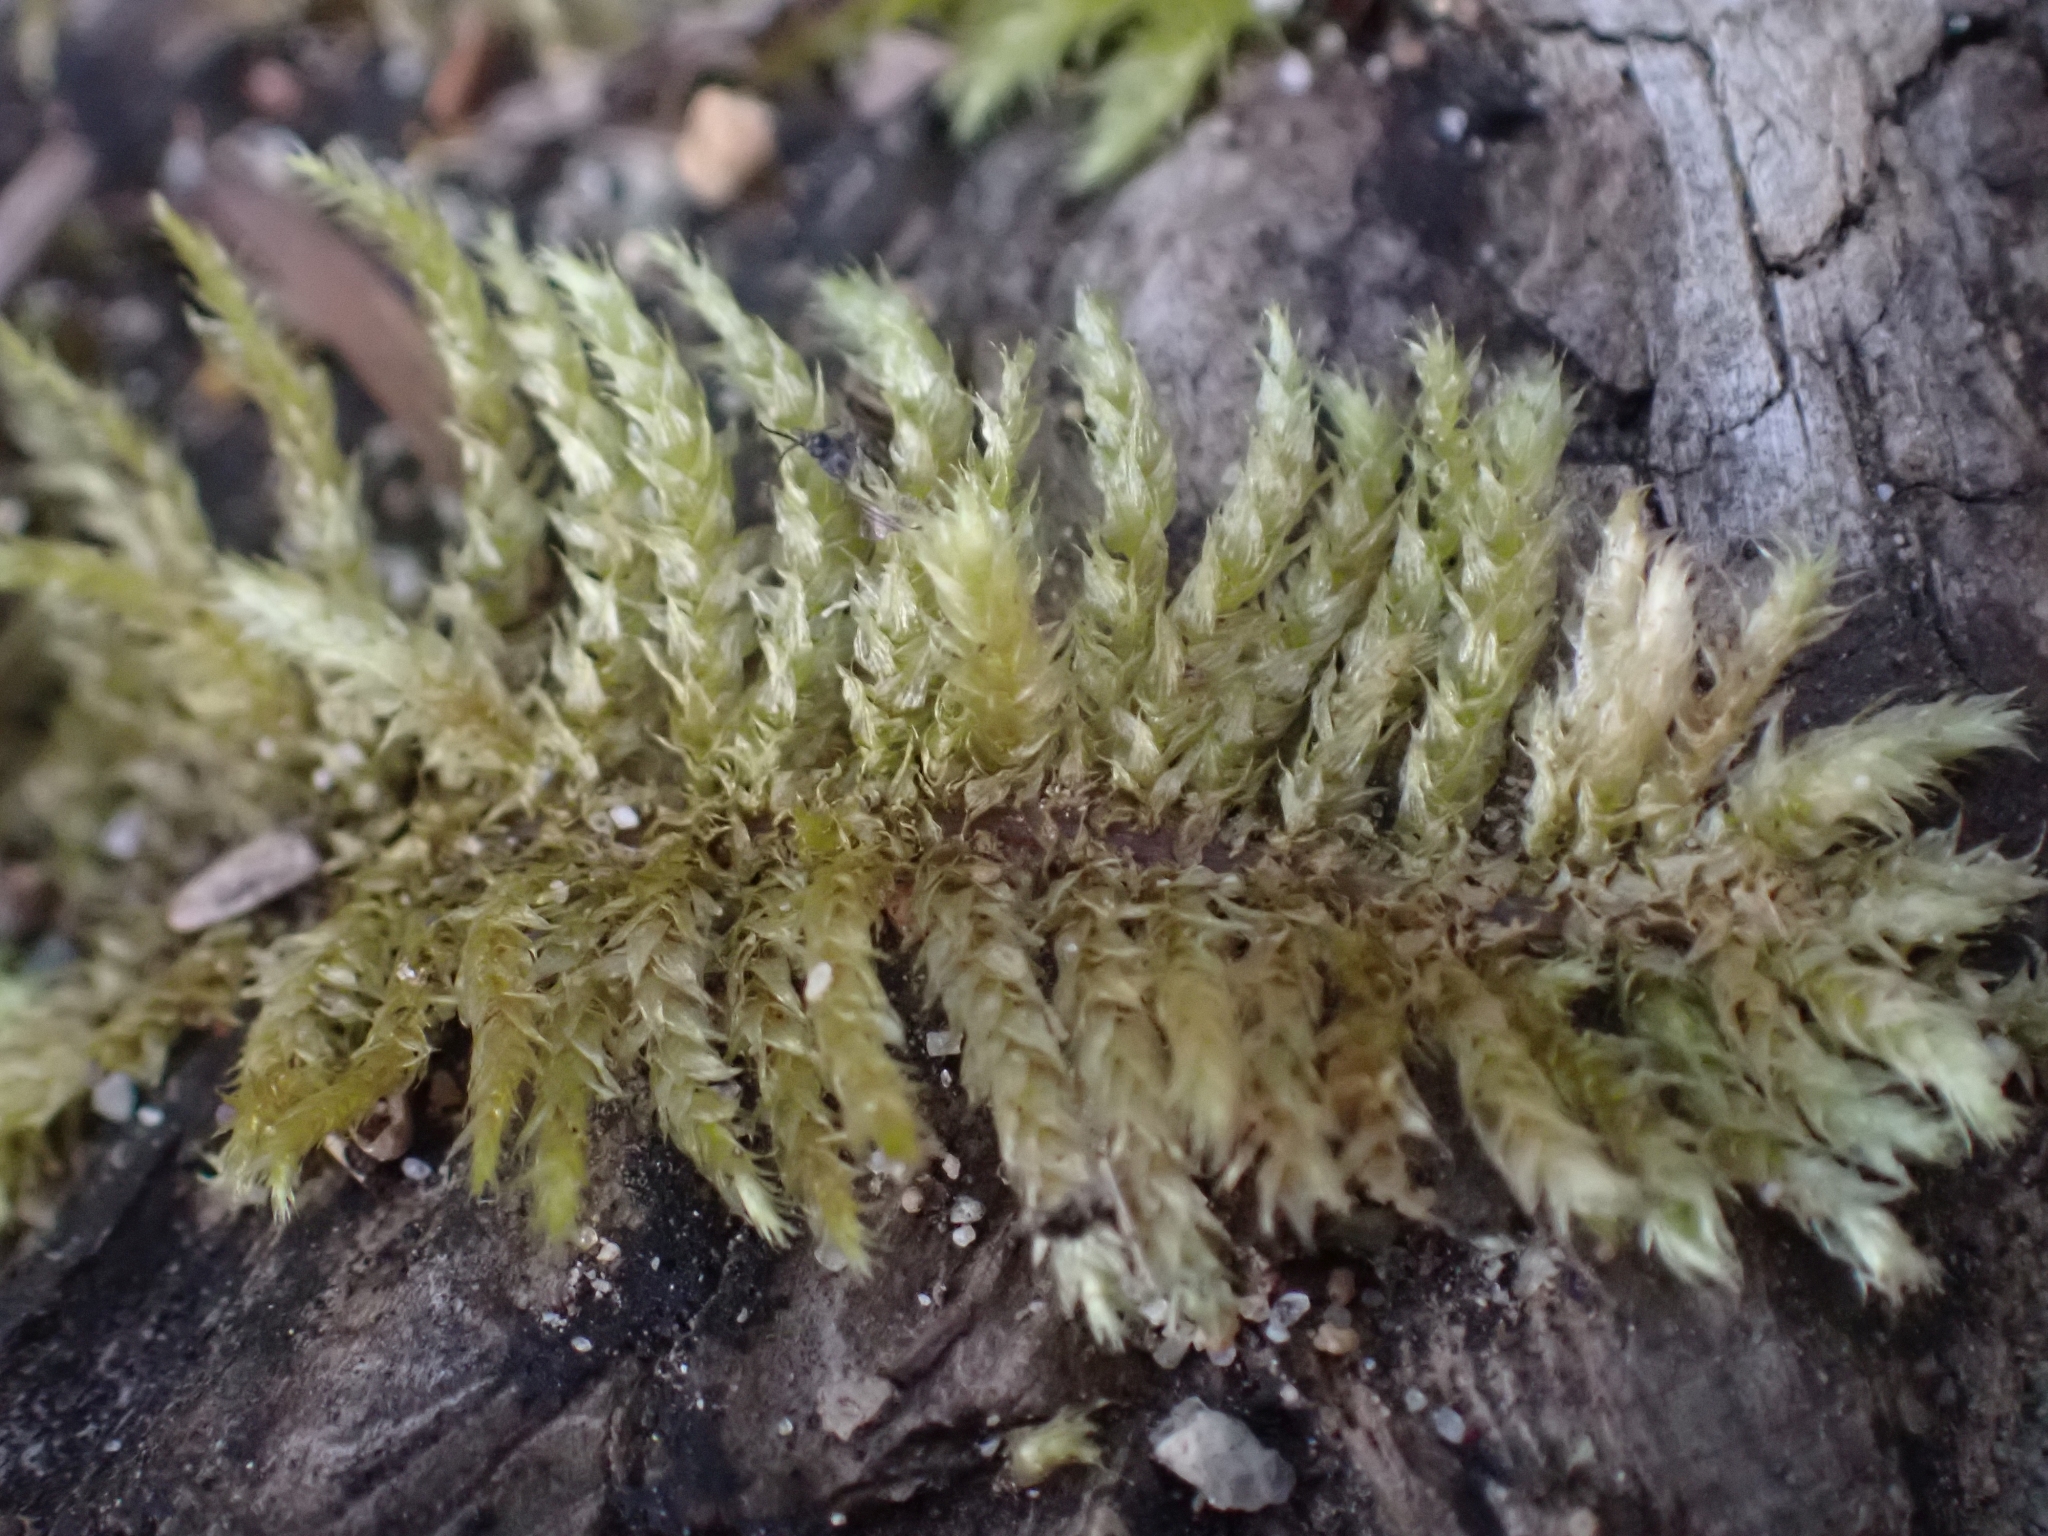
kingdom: Plantae
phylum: Bryophyta
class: Bryopsida
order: Hypnales
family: Brachytheciaceae
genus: Kindbergia
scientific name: Kindbergia oregana
